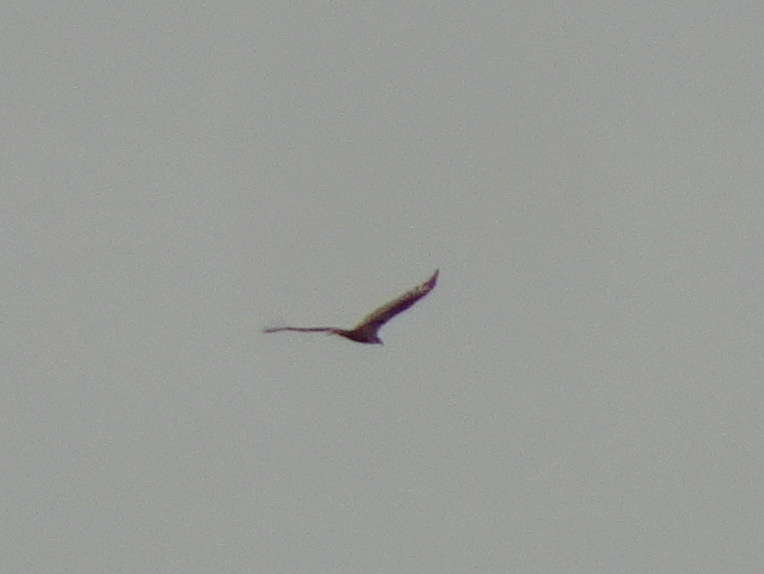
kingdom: Animalia
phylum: Chordata
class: Aves
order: Accipitriformes
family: Cathartidae
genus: Cathartes
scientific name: Cathartes aura
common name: Turkey vulture
